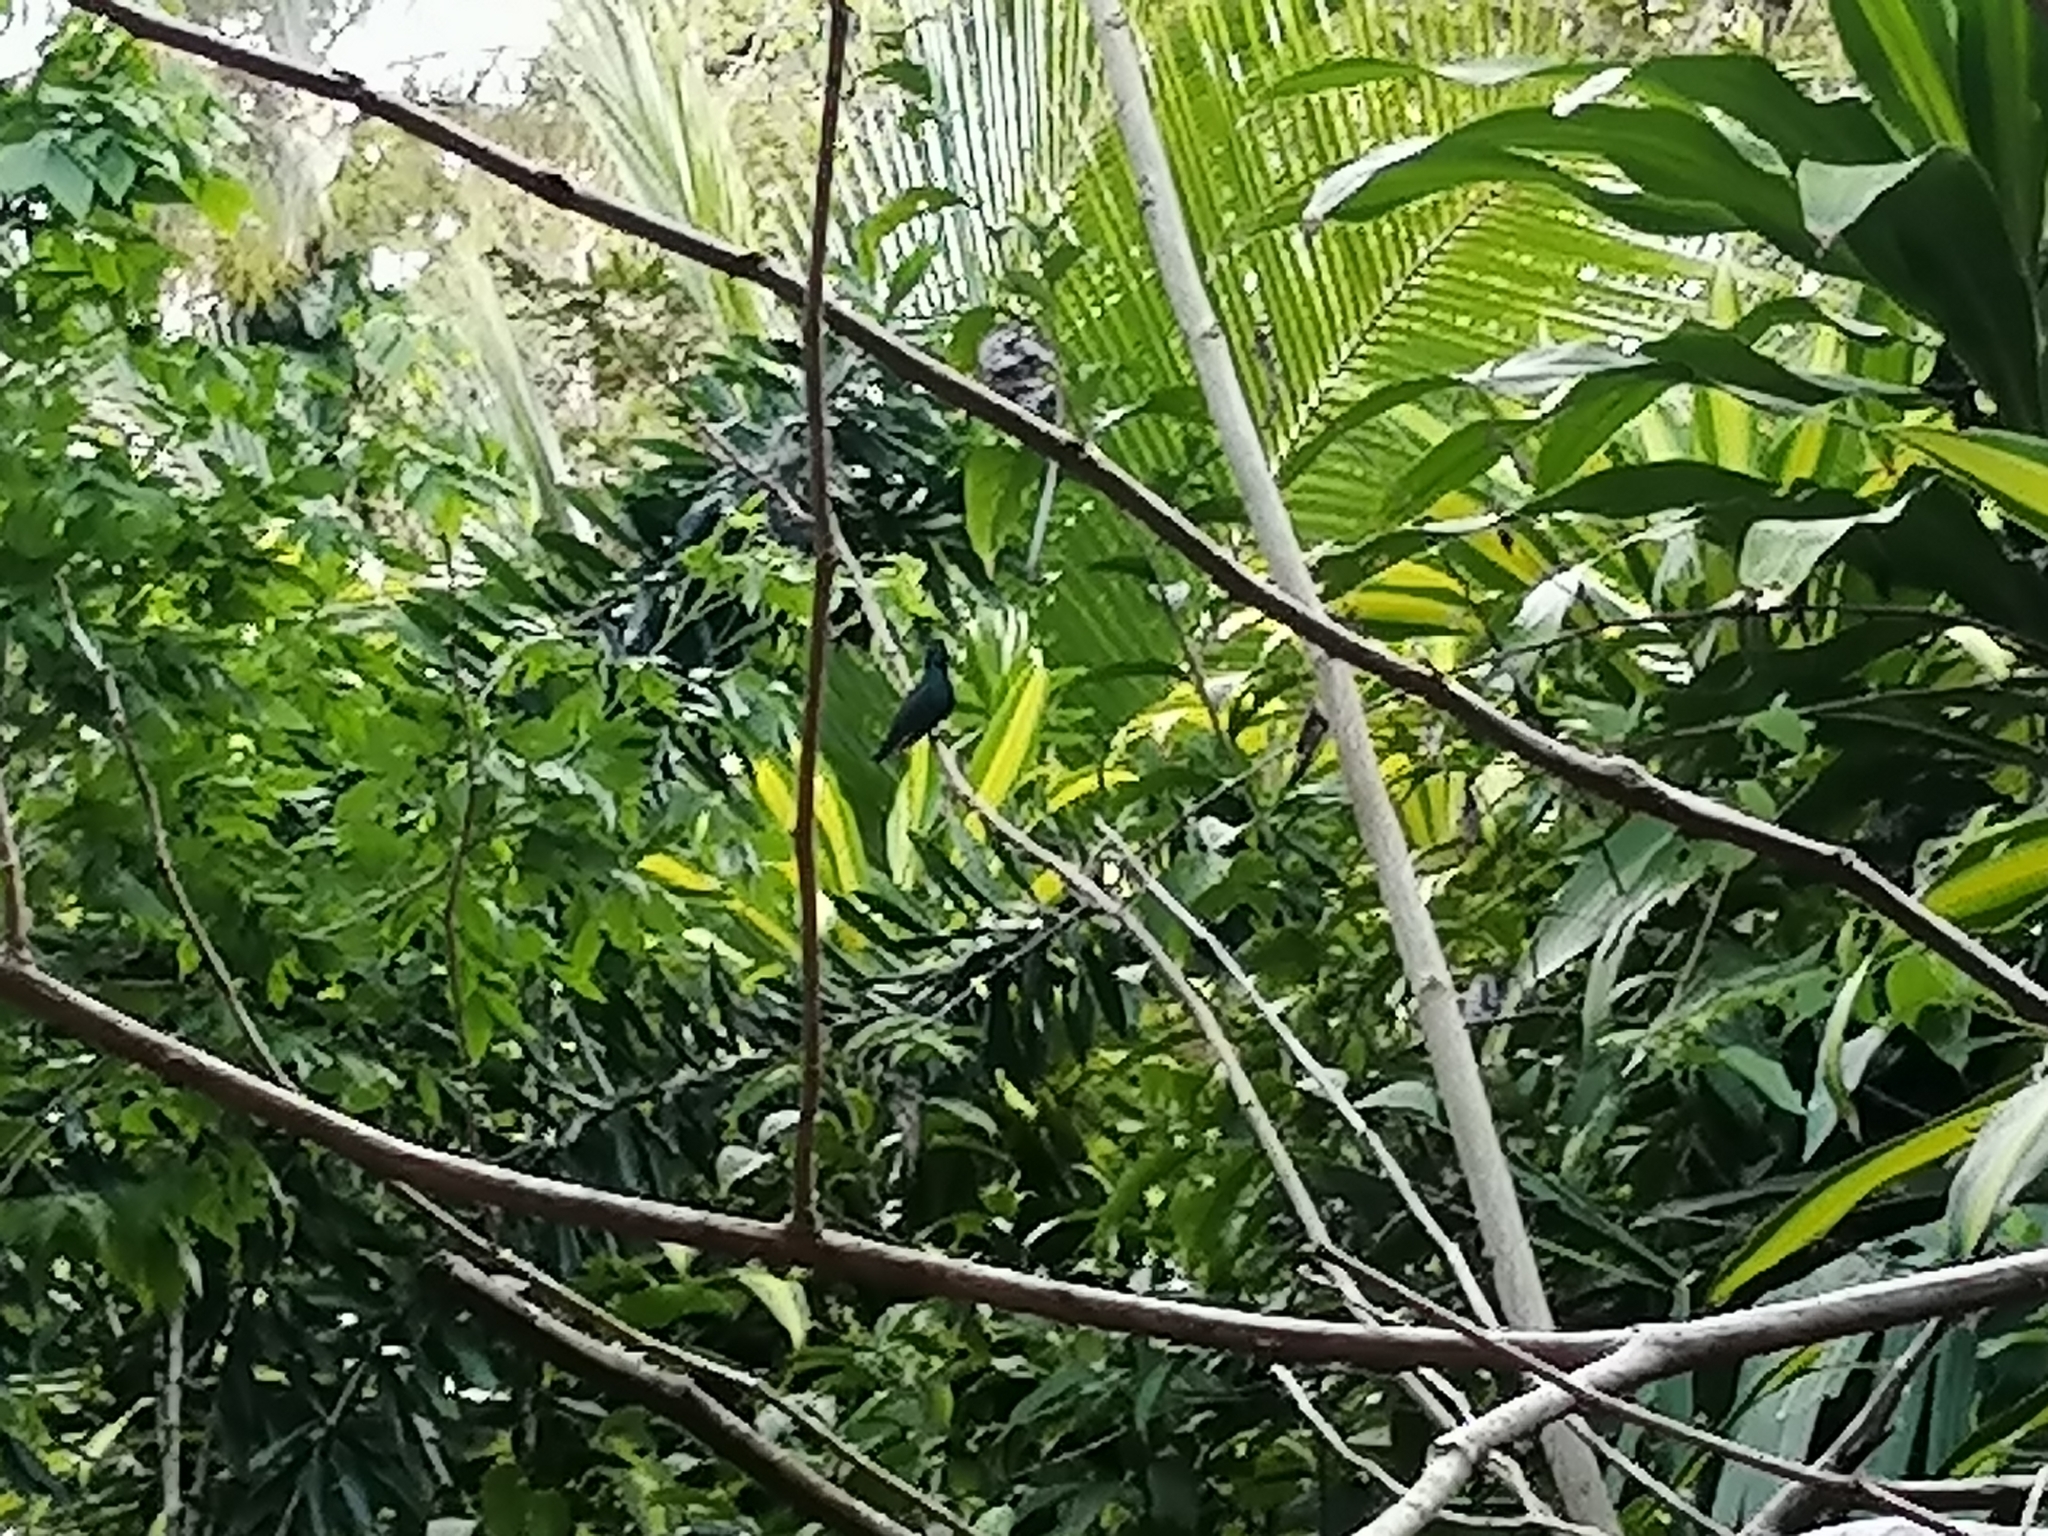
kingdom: Animalia
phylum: Chordata
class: Aves
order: Apodiformes
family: Trochilidae
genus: Chlorestes
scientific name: Chlorestes julie
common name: Violet-bellied hummingbird
